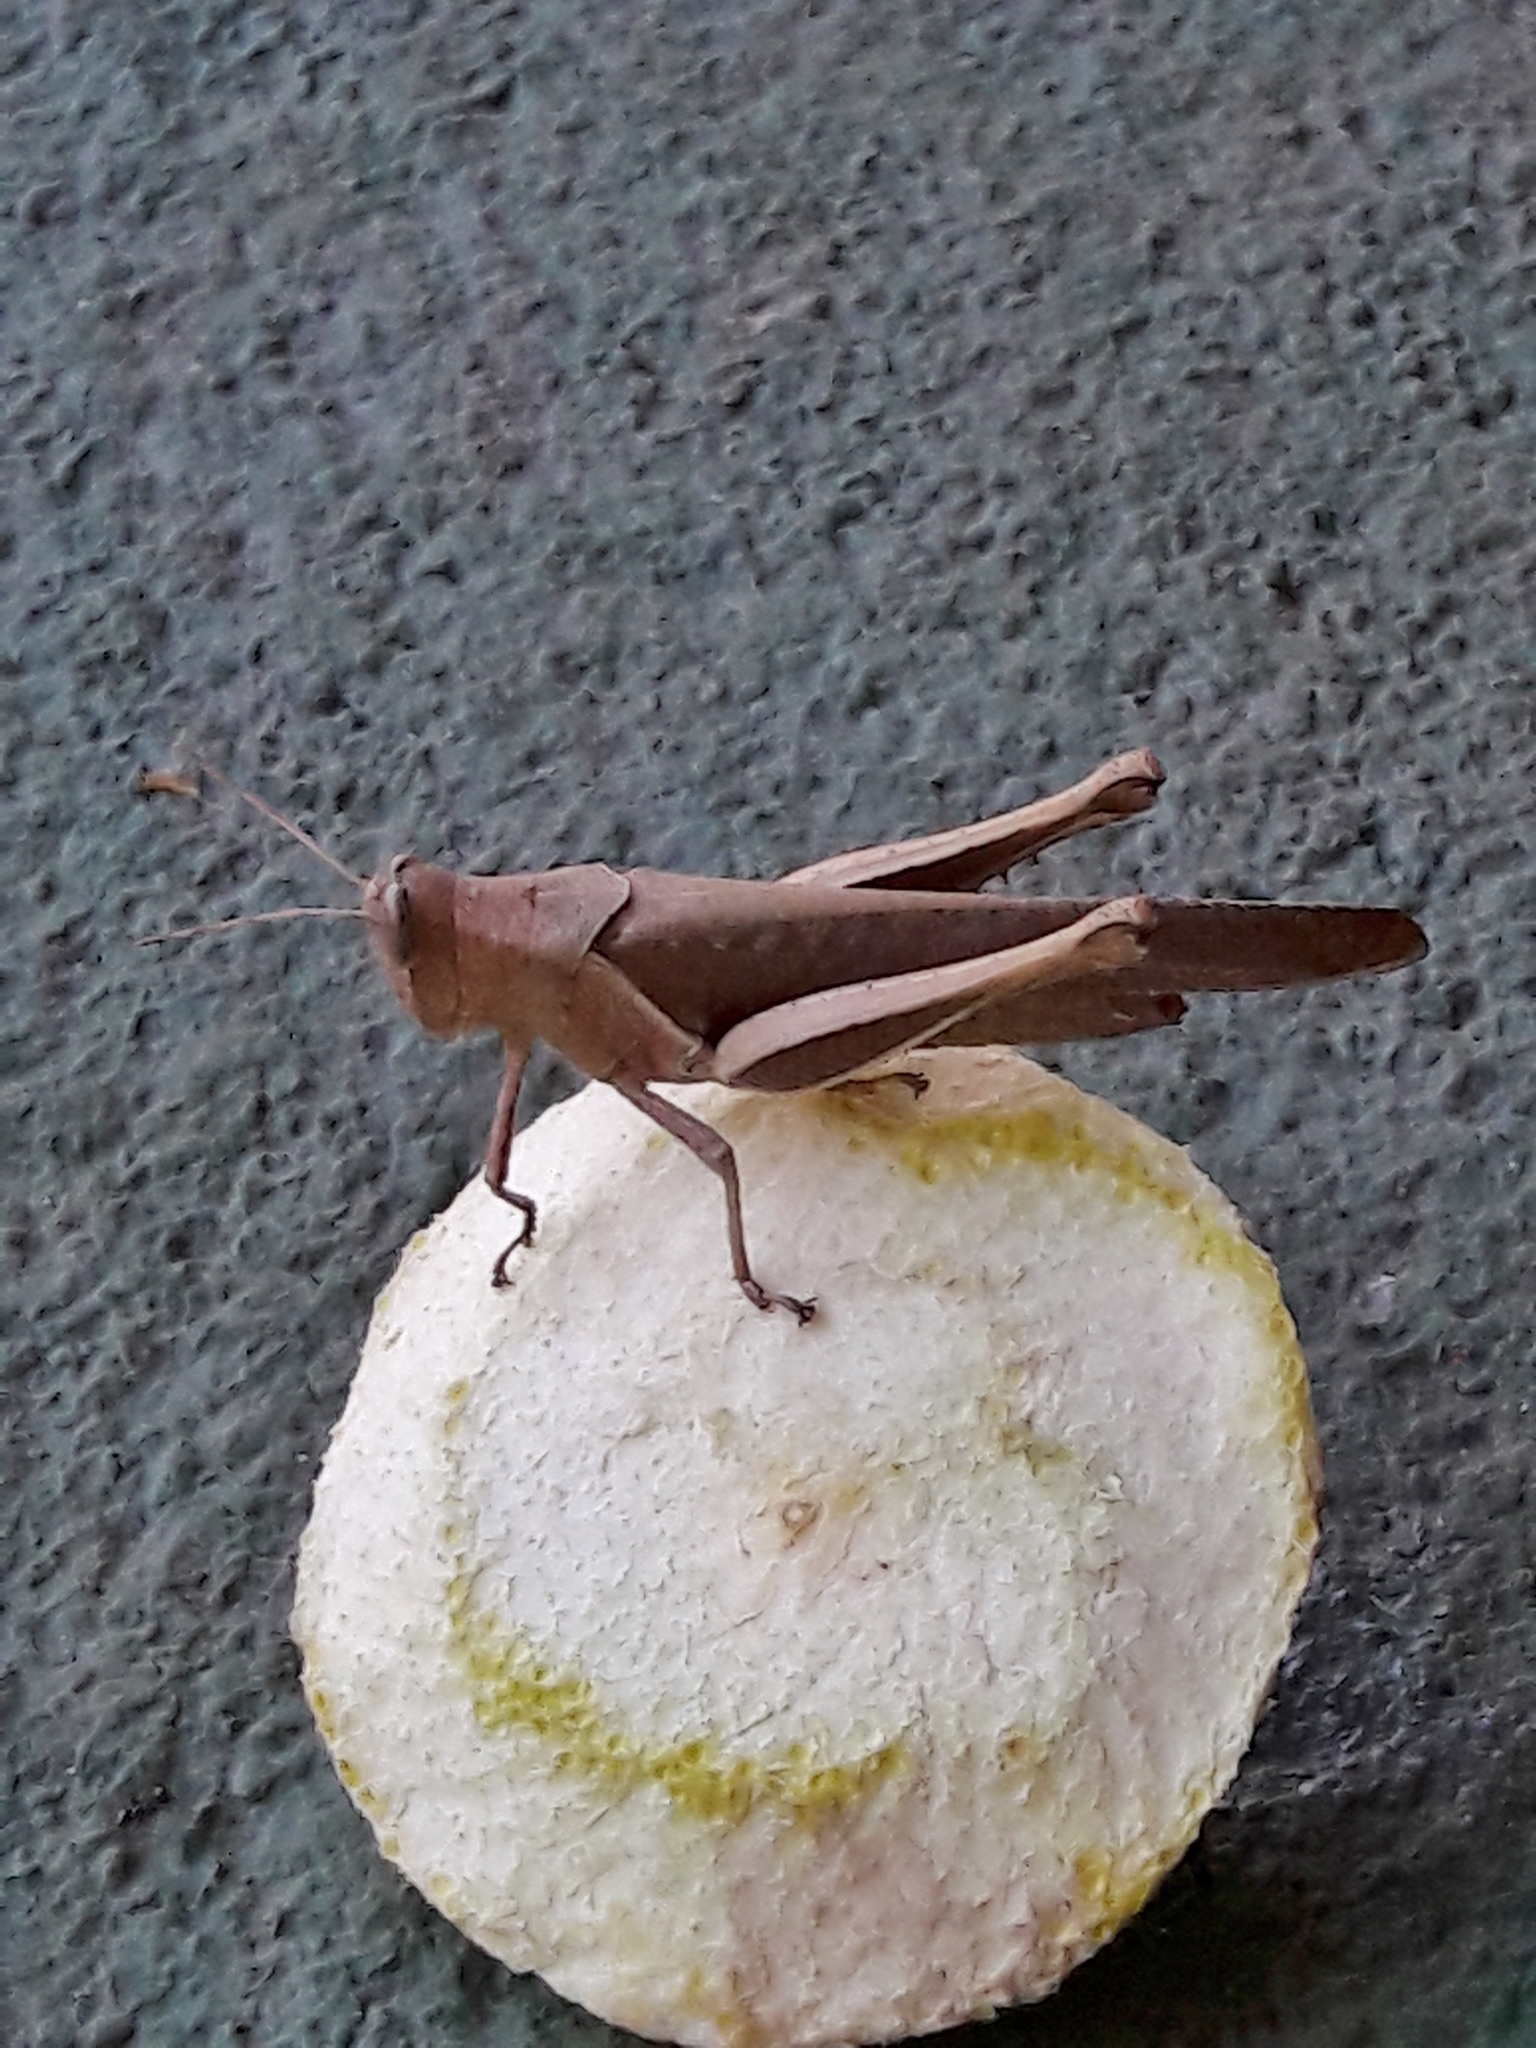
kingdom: Animalia
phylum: Arthropoda
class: Insecta
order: Orthoptera
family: Acrididae
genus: Abracris
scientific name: Abracris flavolineata
